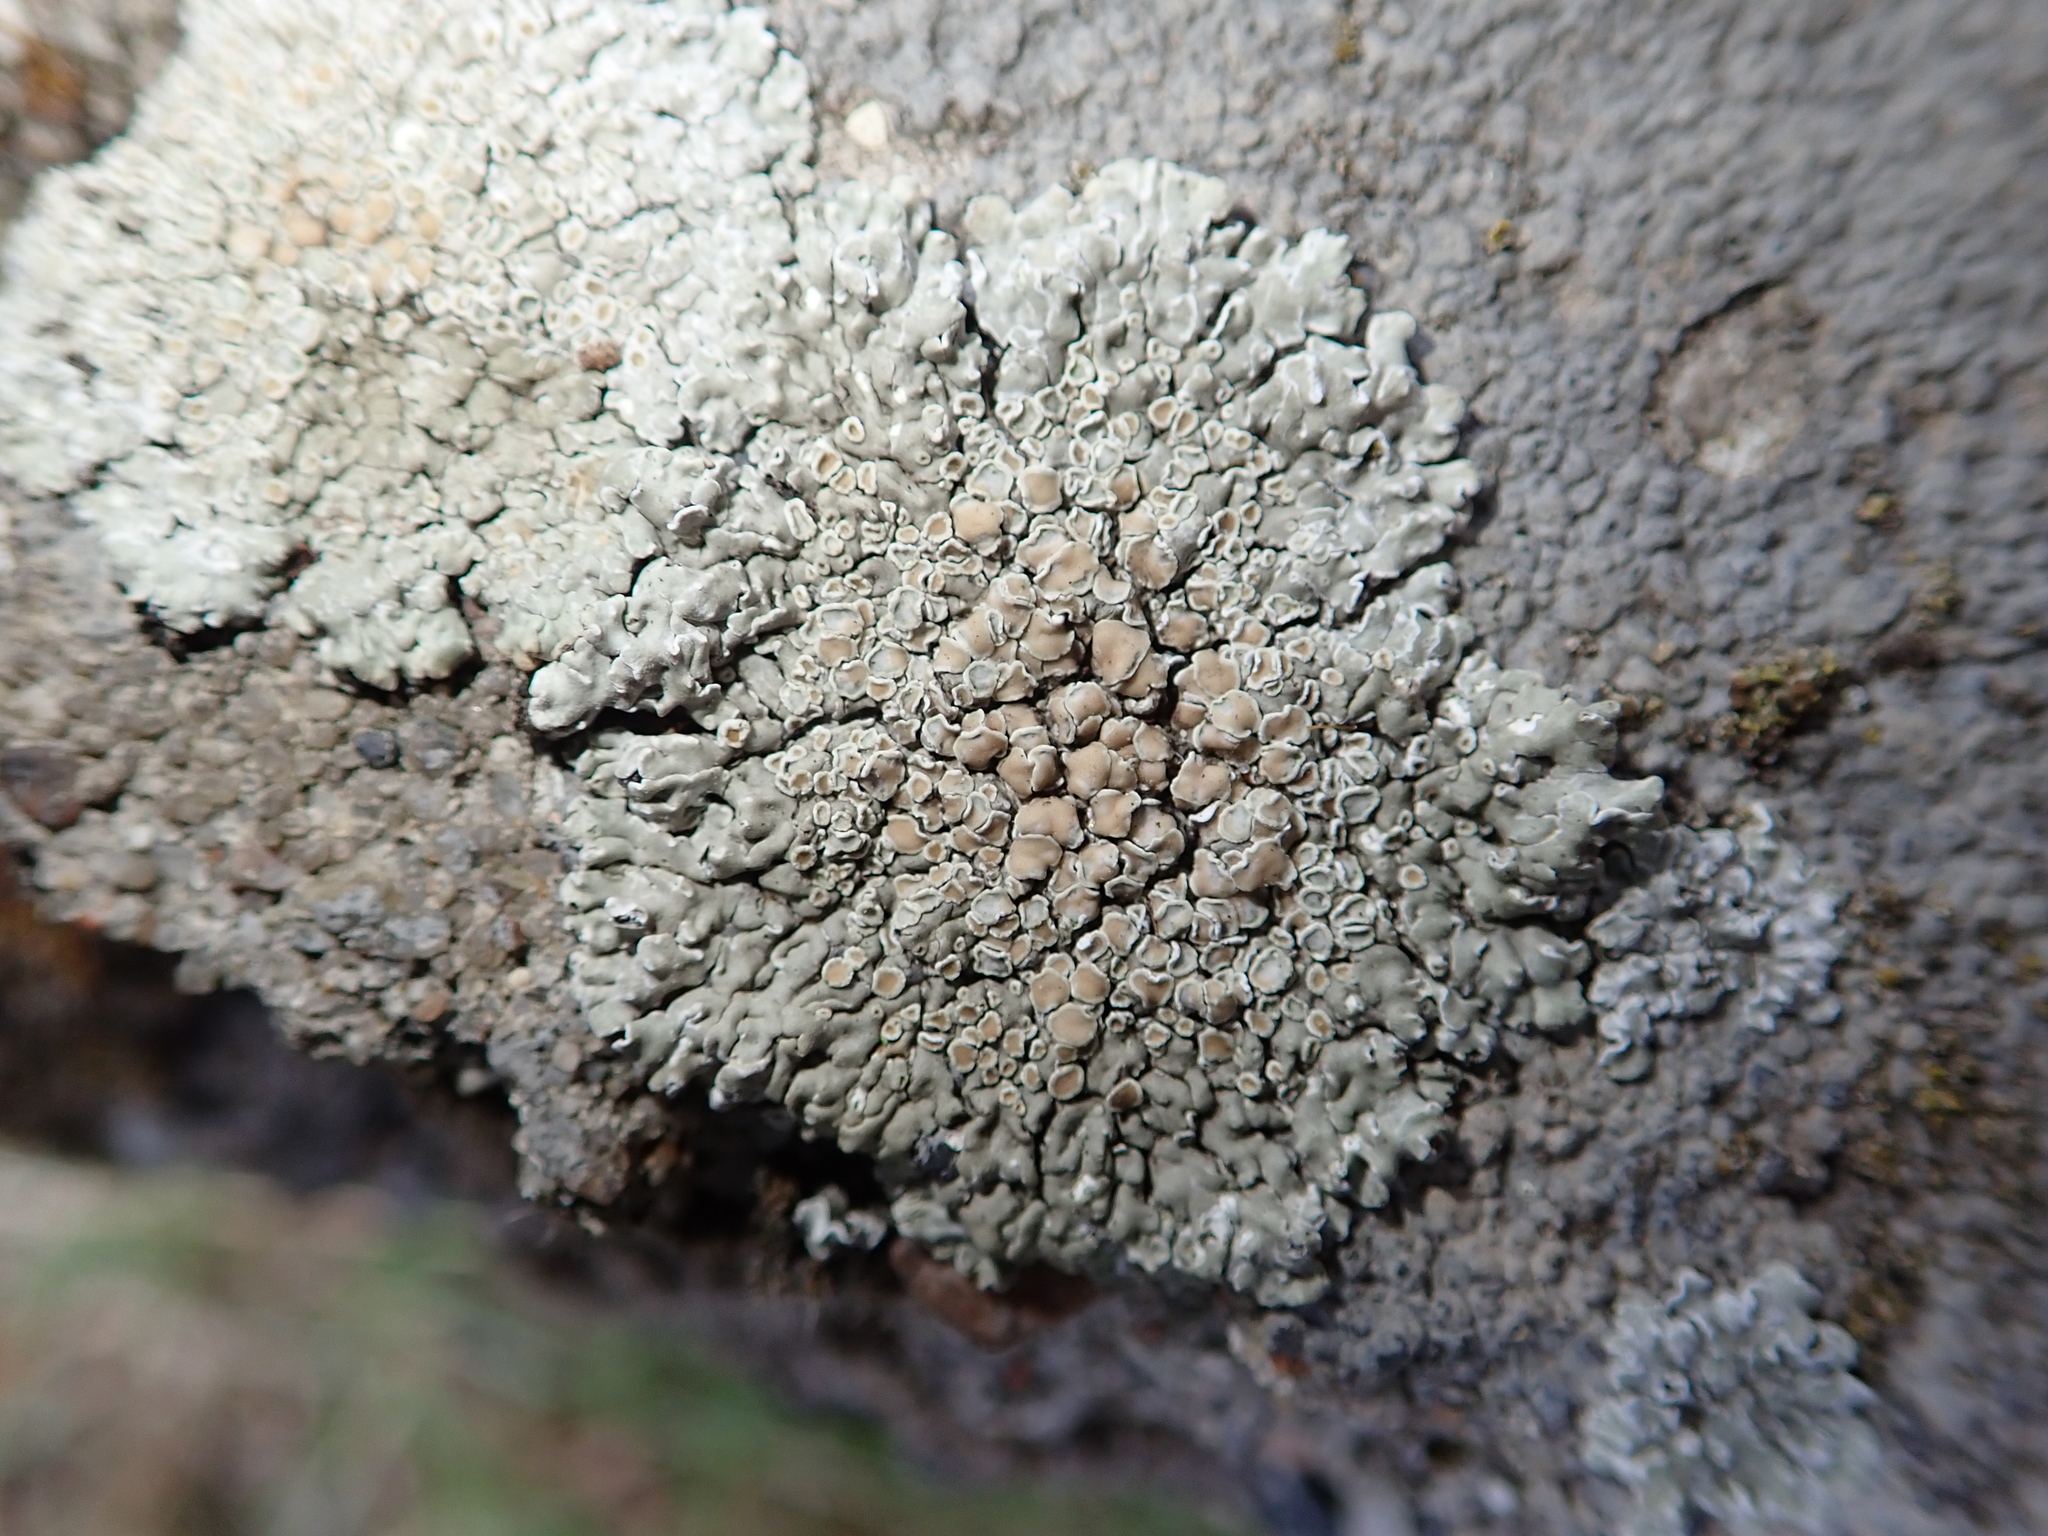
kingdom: Fungi
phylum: Ascomycota
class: Lecanoromycetes
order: Lecanorales
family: Lecanoraceae
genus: Protoparmeliopsis
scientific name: Protoparmeliopsis muralis
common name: Stonewall rim lichen
